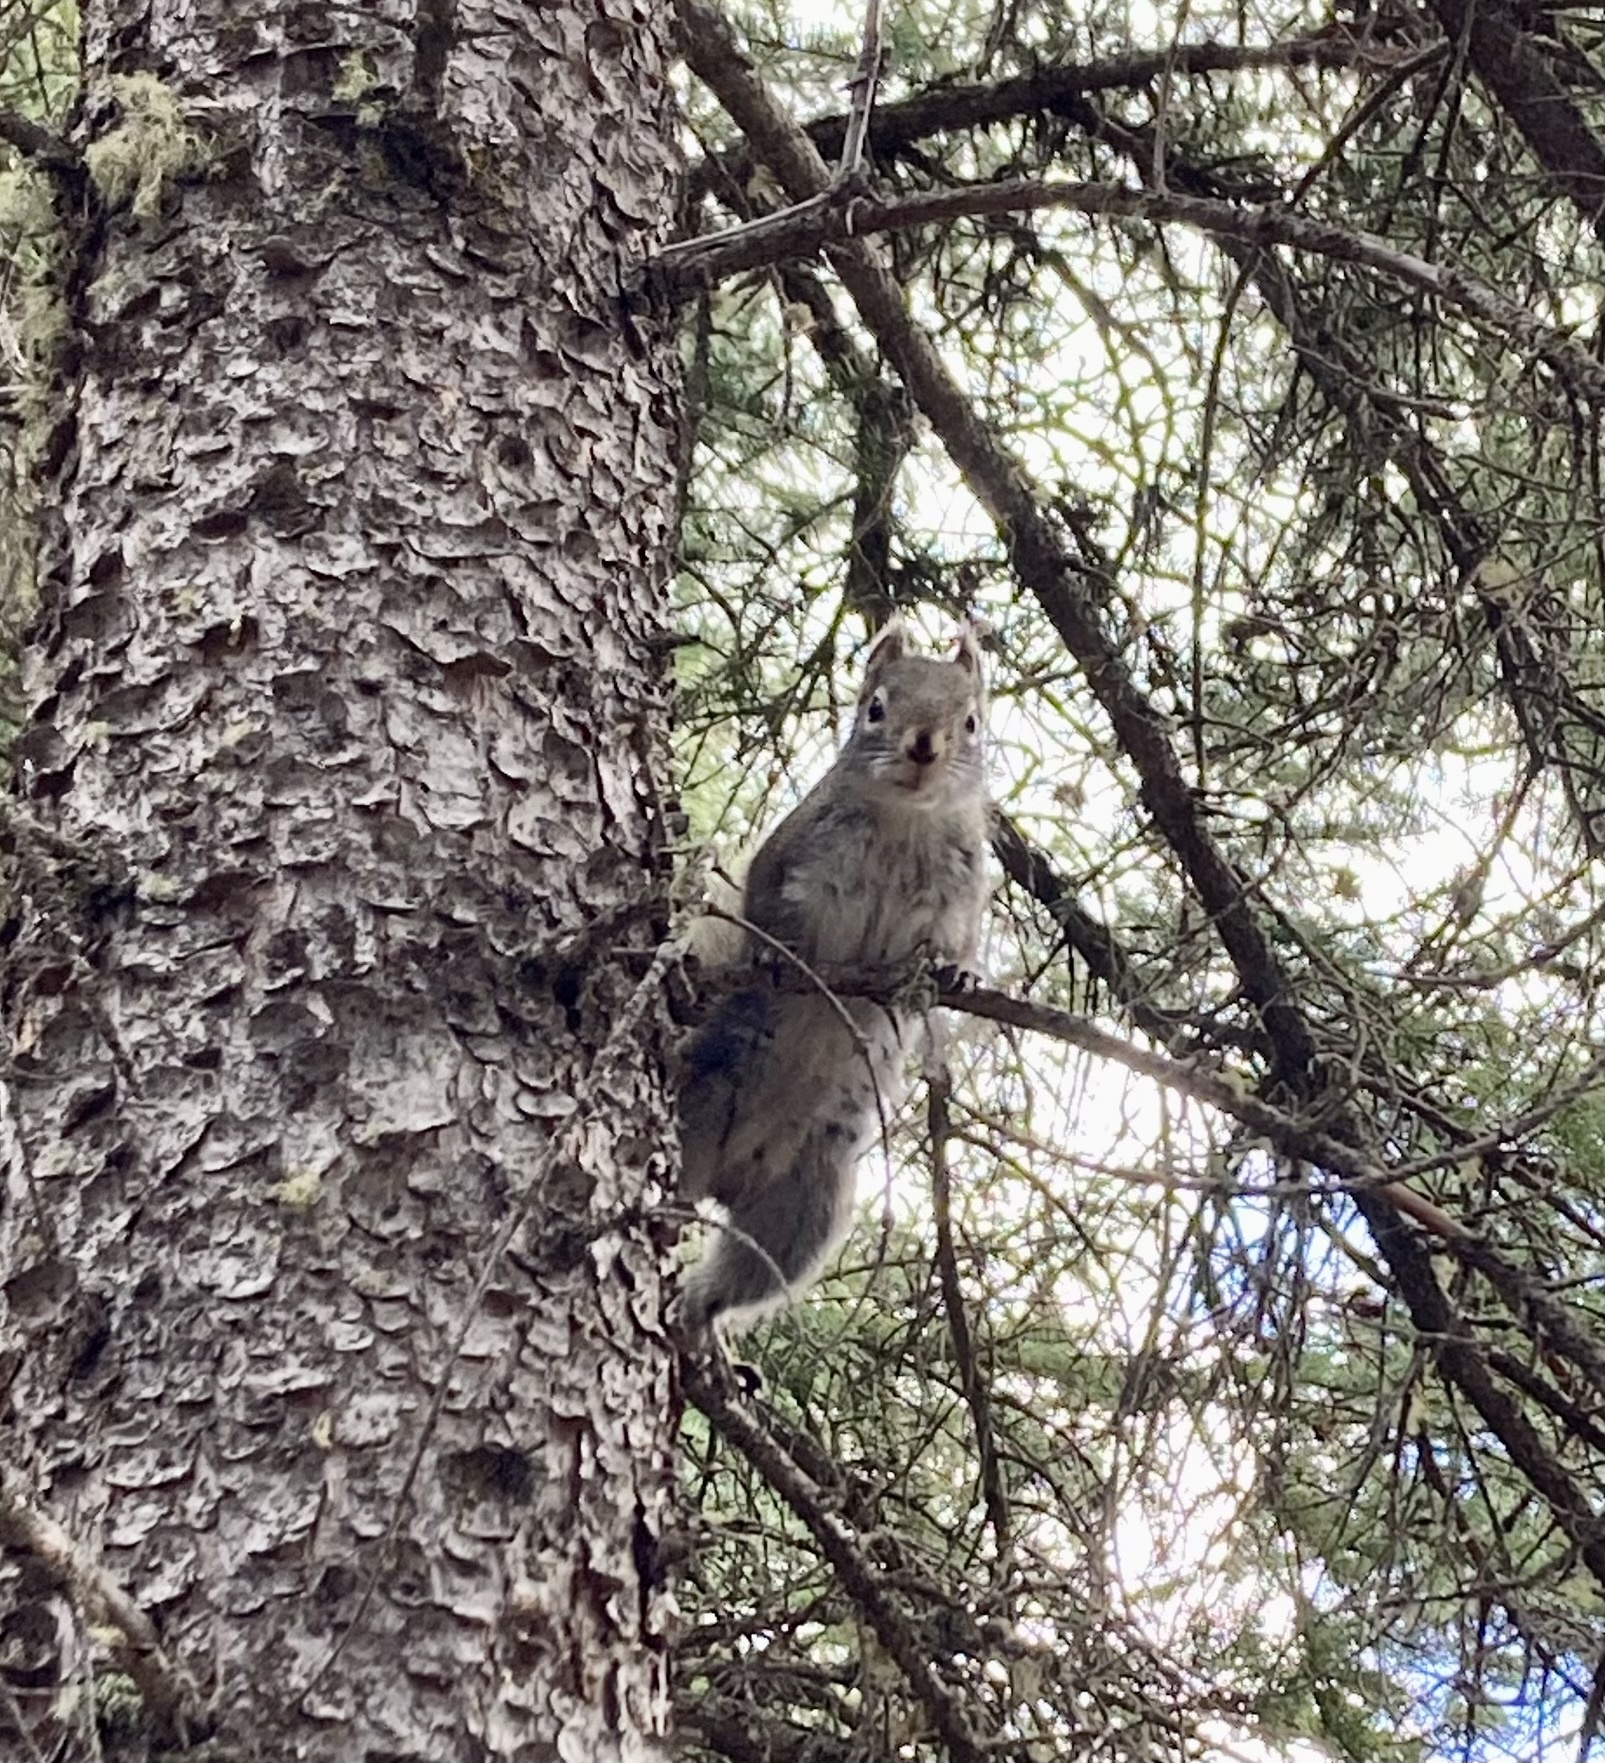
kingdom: Animalia
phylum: Chordata
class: Mammalia
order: Rodentia
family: Sciuridae
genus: Tamiasciurus
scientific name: Tamiasciurus hudsonicus
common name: Red squirrel
